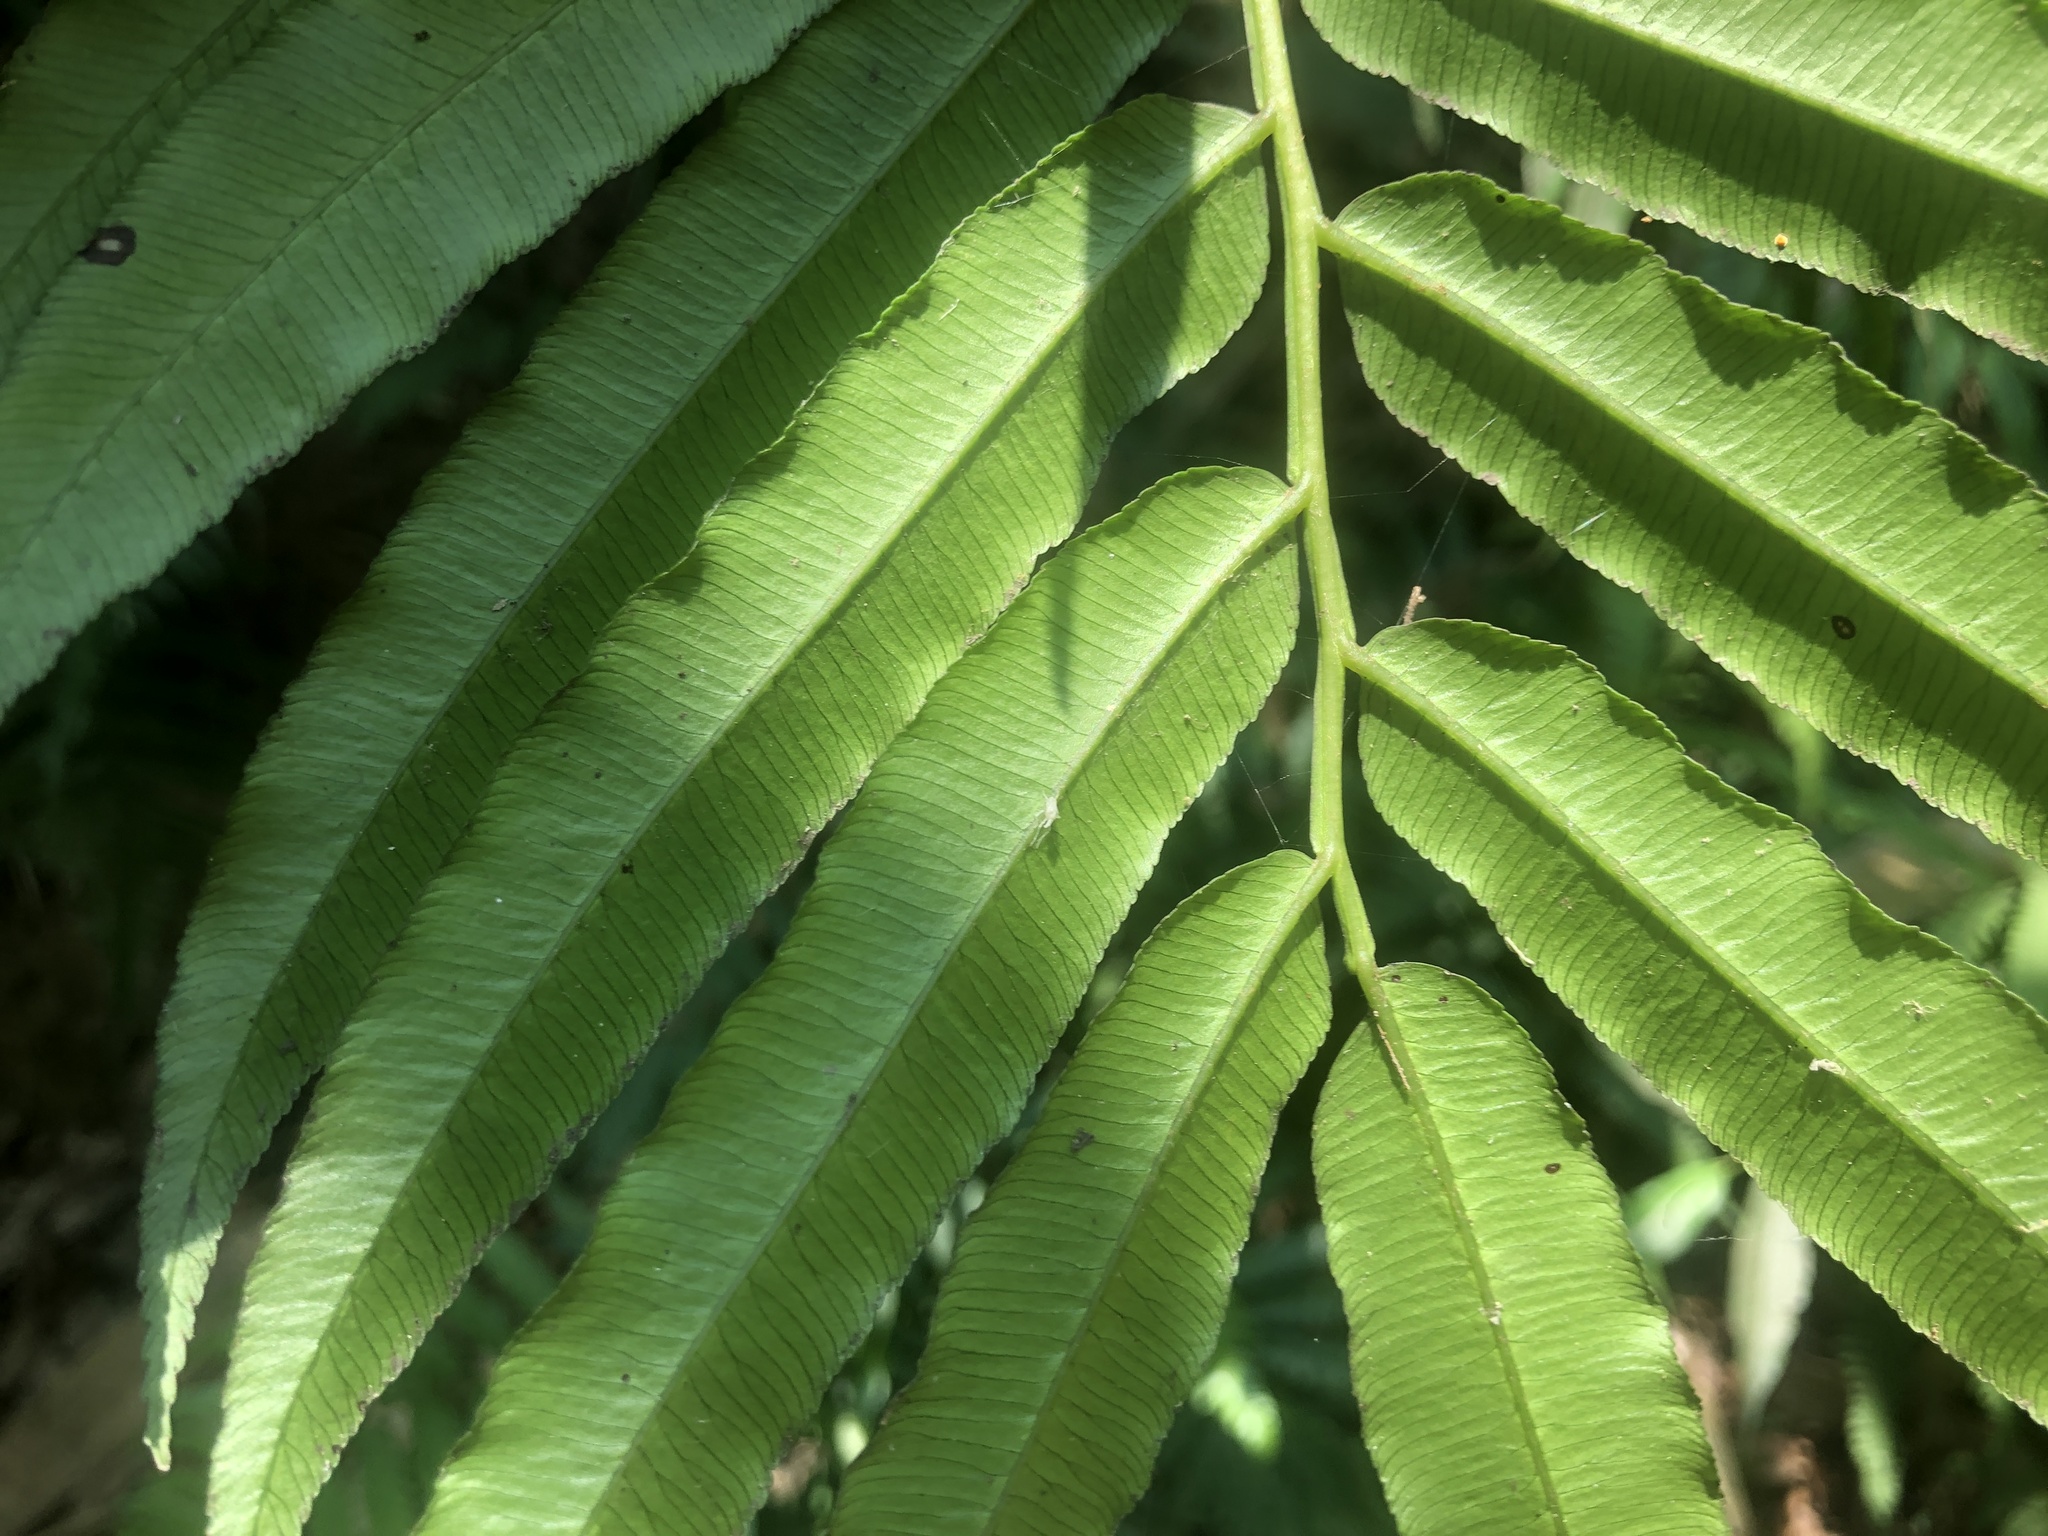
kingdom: Plantae
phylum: Tracheophyta
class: Polypodiopsida
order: Marattiales
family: Marattiaceae
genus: Angiopteris
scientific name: Angiopteris lygodiifolia
